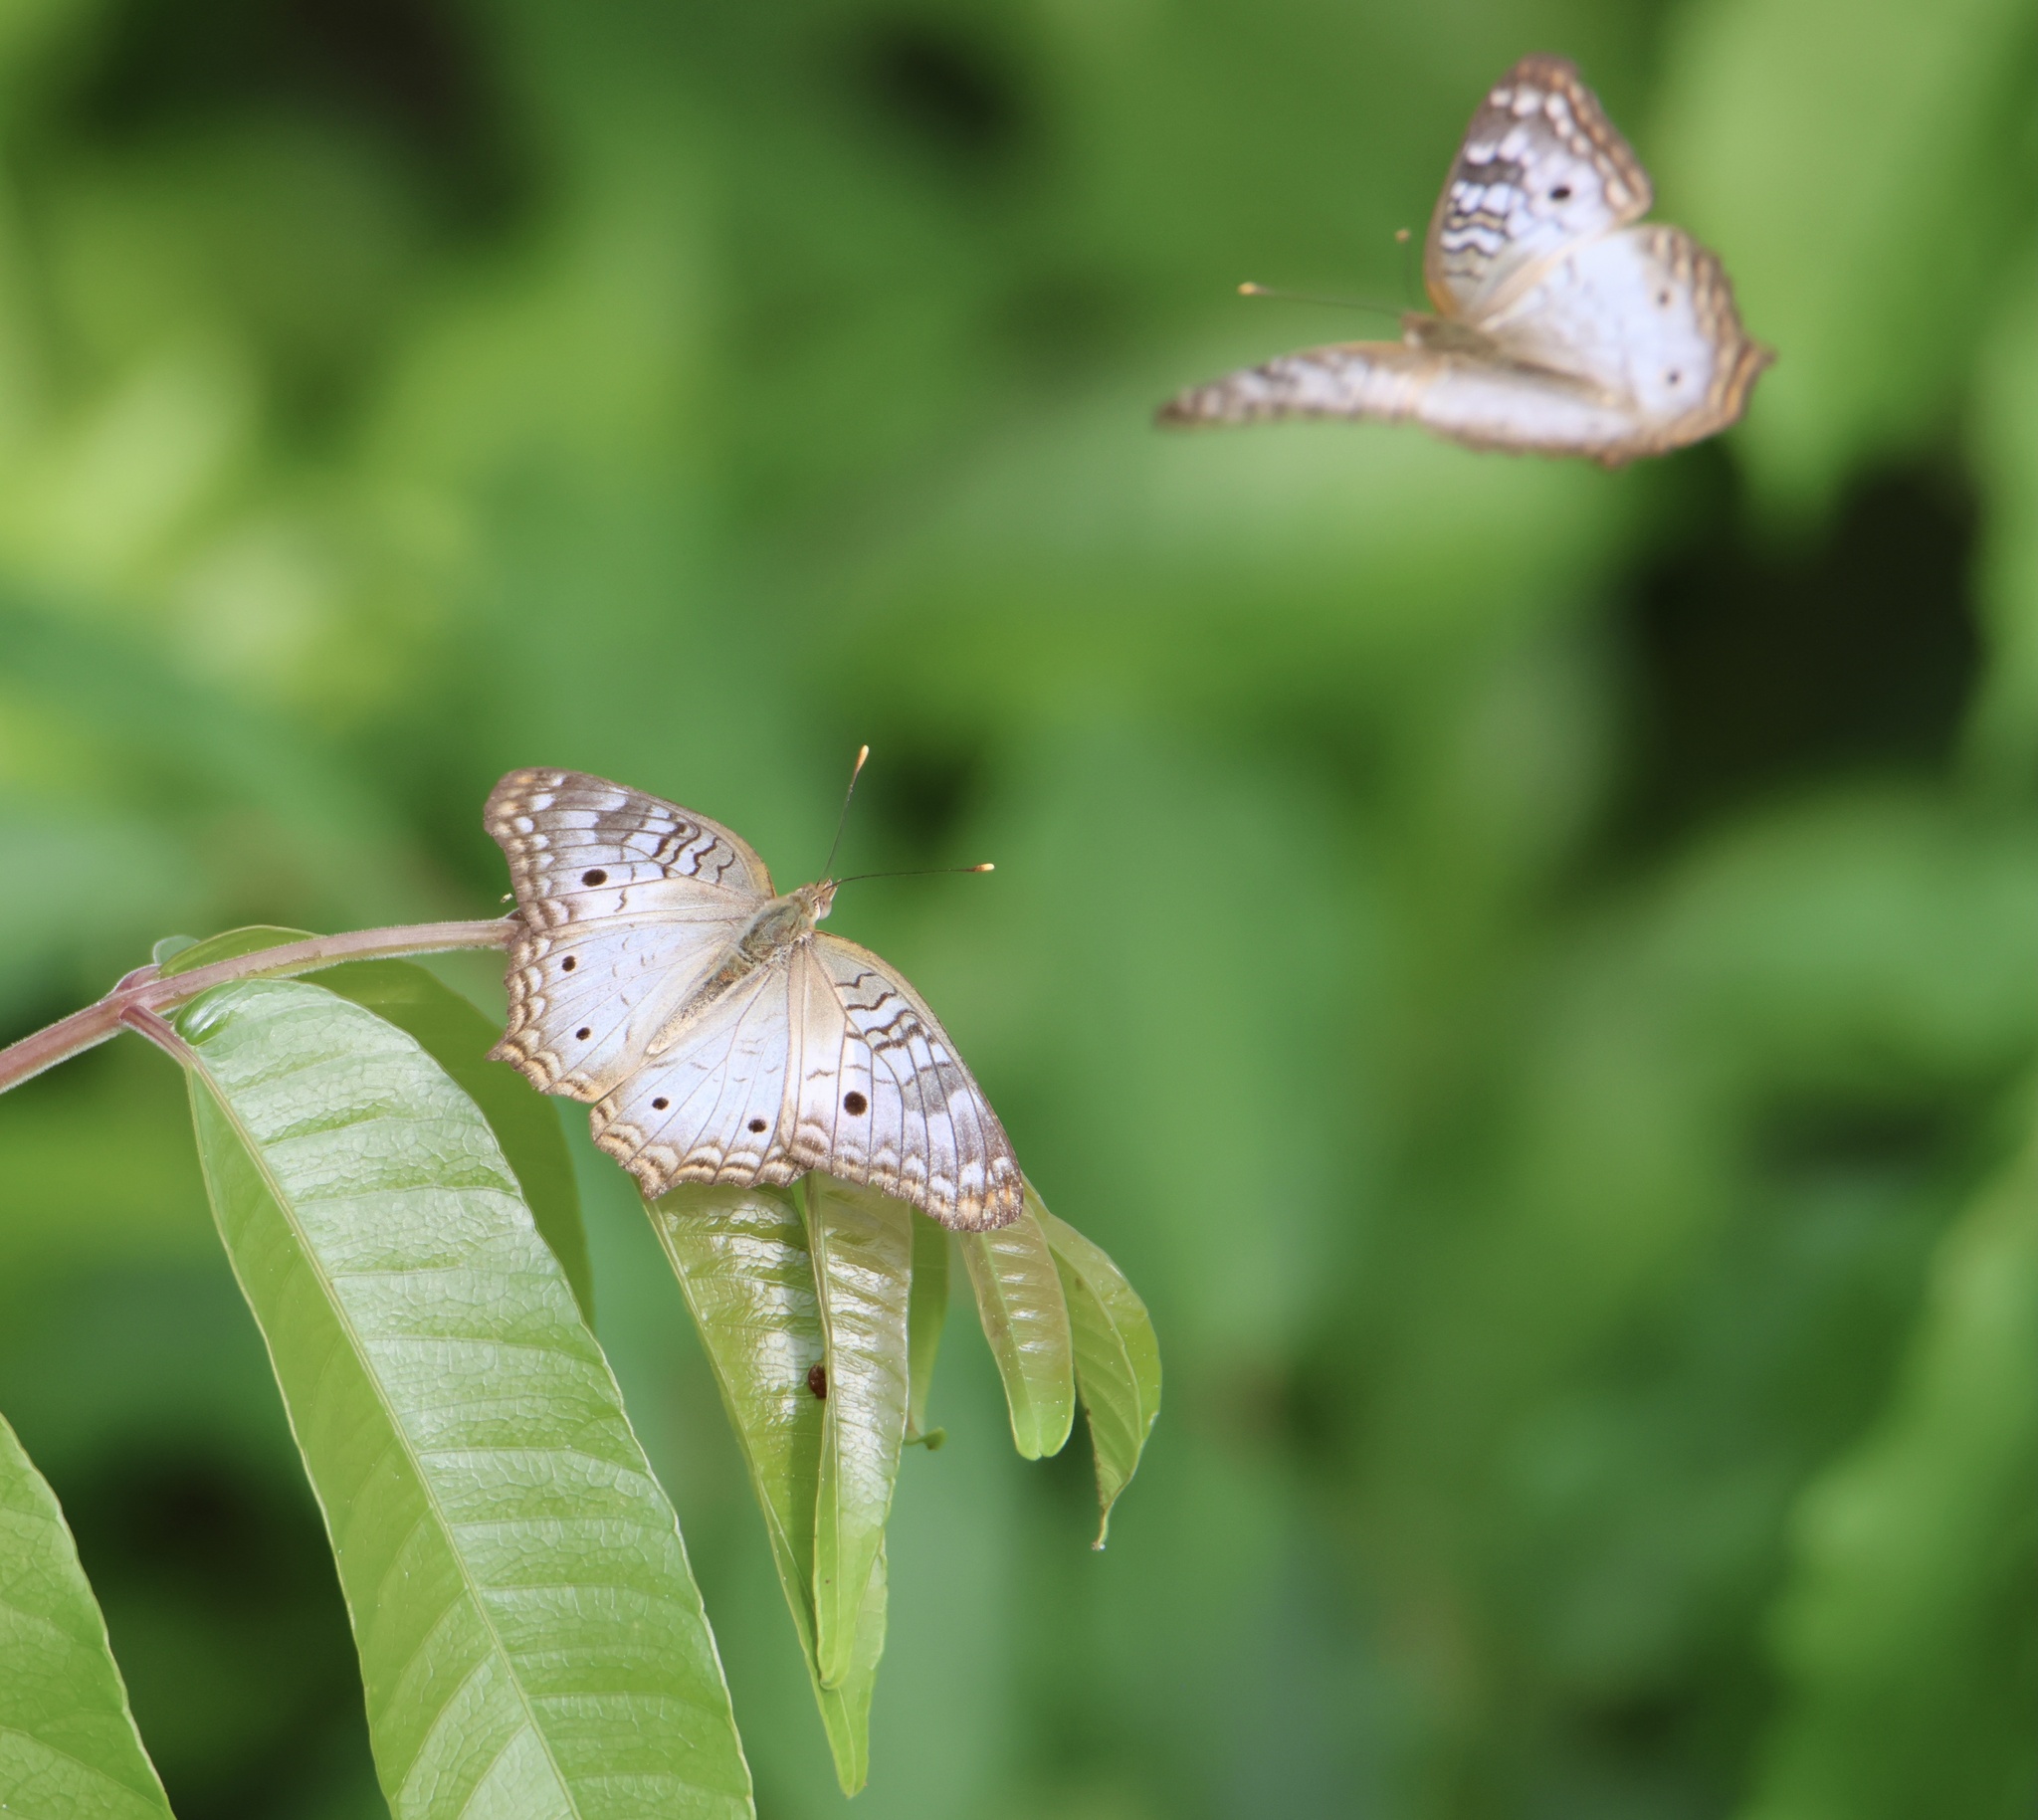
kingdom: Animalia
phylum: Arthropoda
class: Insecta
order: Lepidoptera
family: Nymphalidae
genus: Anartia
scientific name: Anartia jatrophae
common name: White peacock
